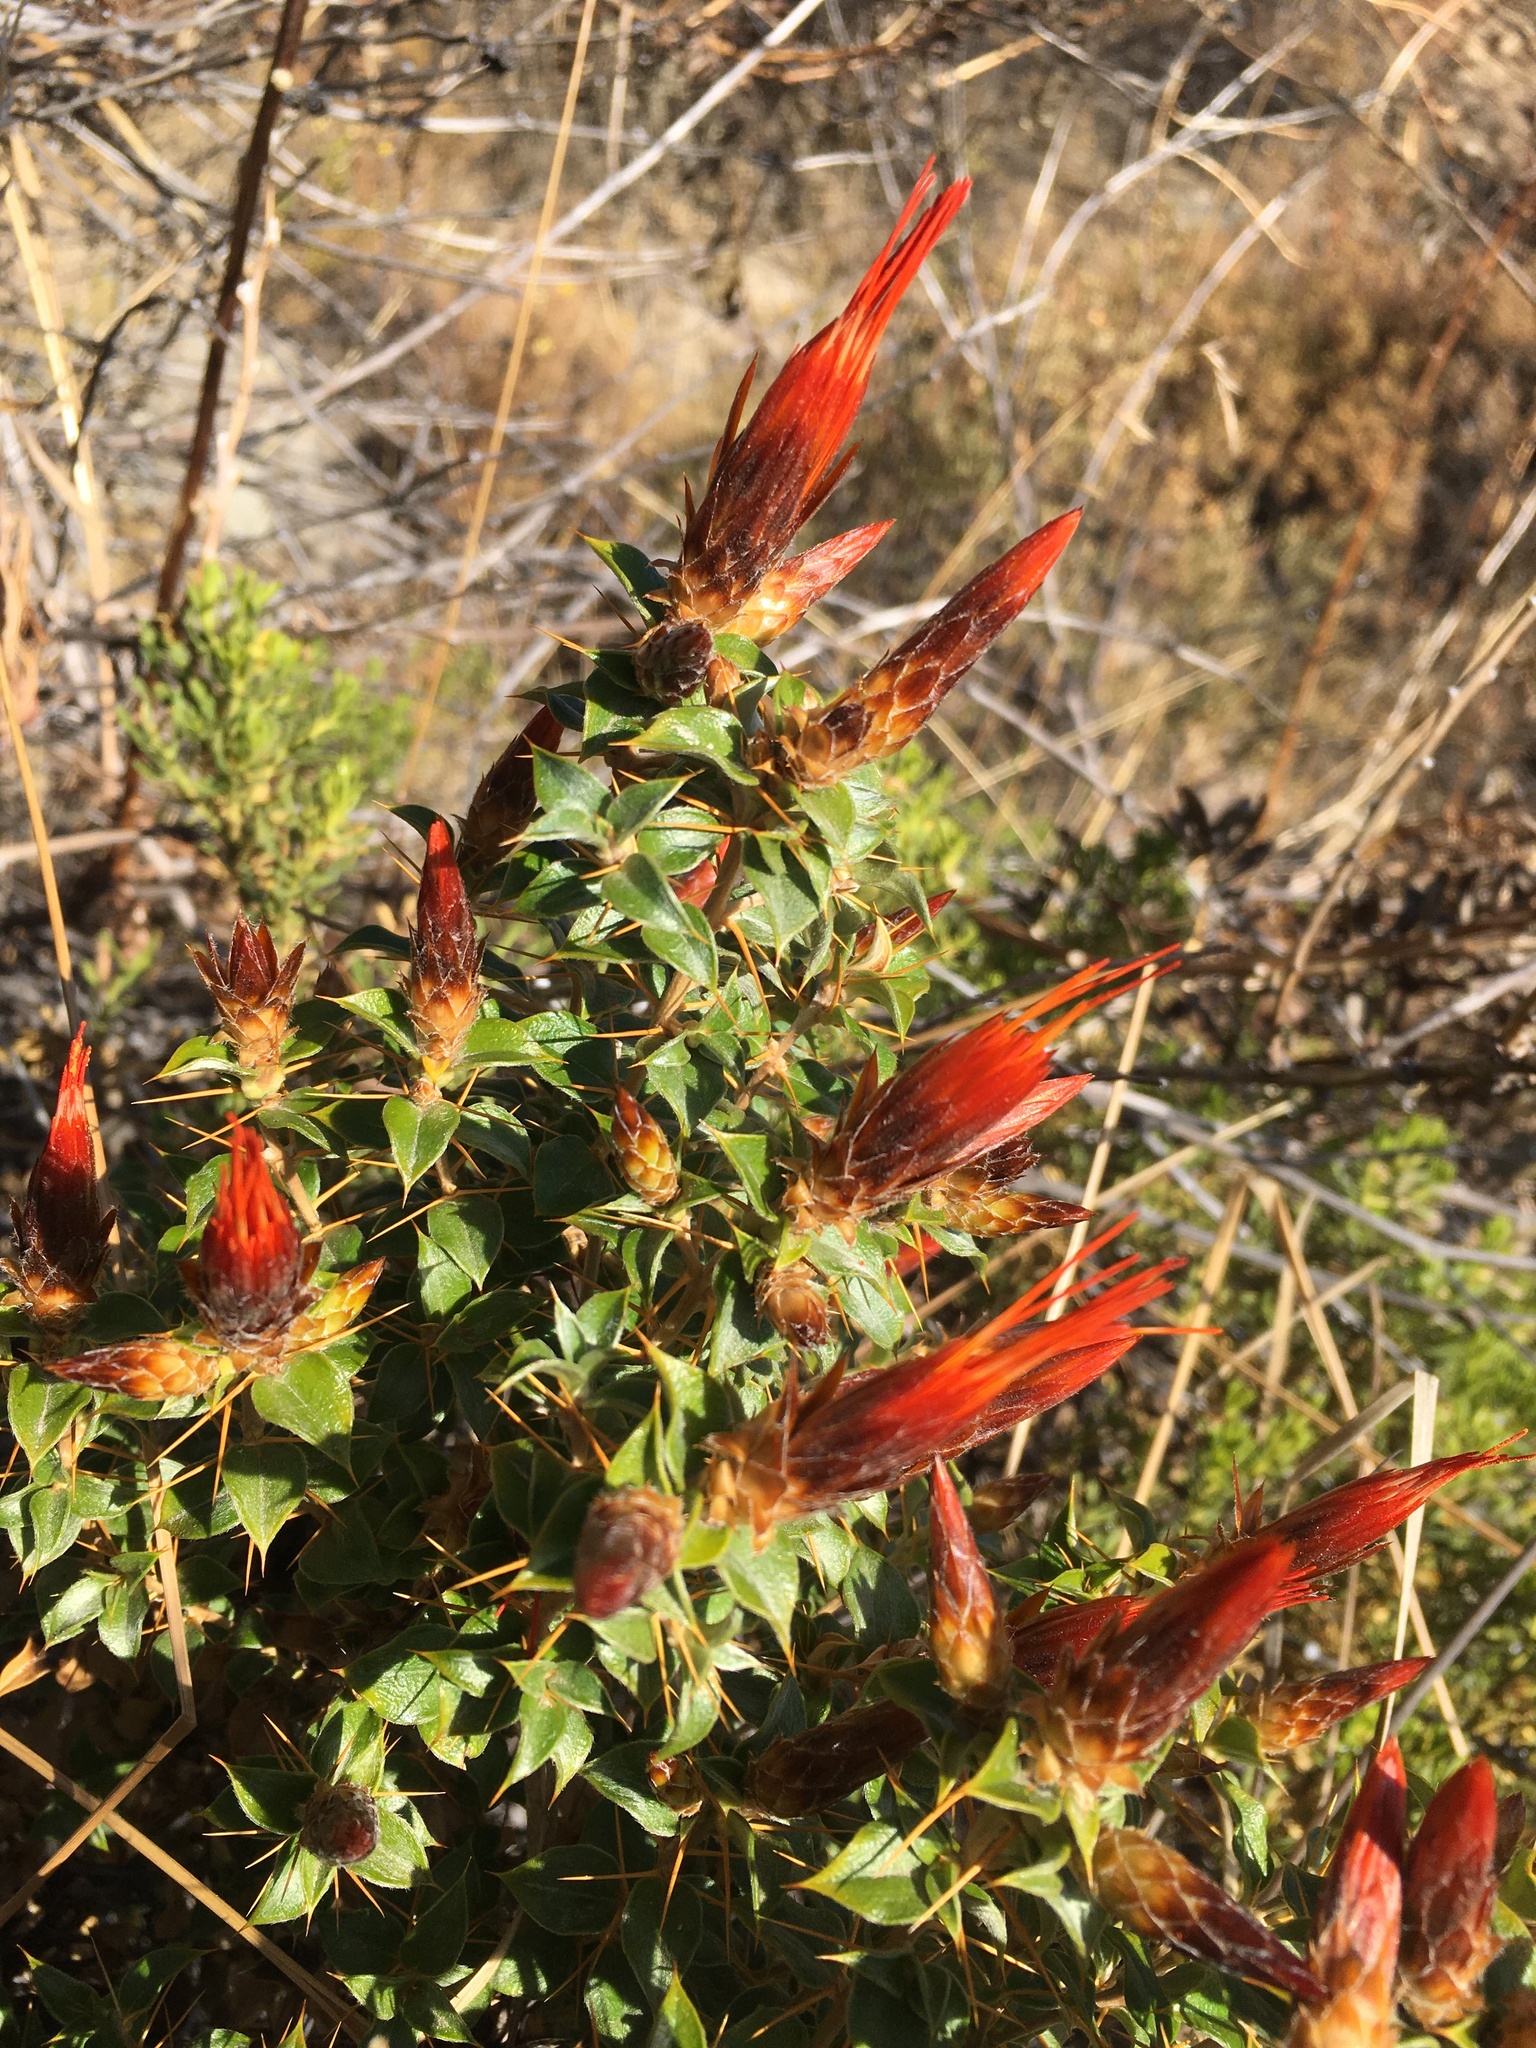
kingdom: Plantae
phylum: Tracheophyta
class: Magnoliopsida
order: Asterales
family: Asteraceae
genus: Chuquiraga
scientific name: Chuquiraga spinosa
